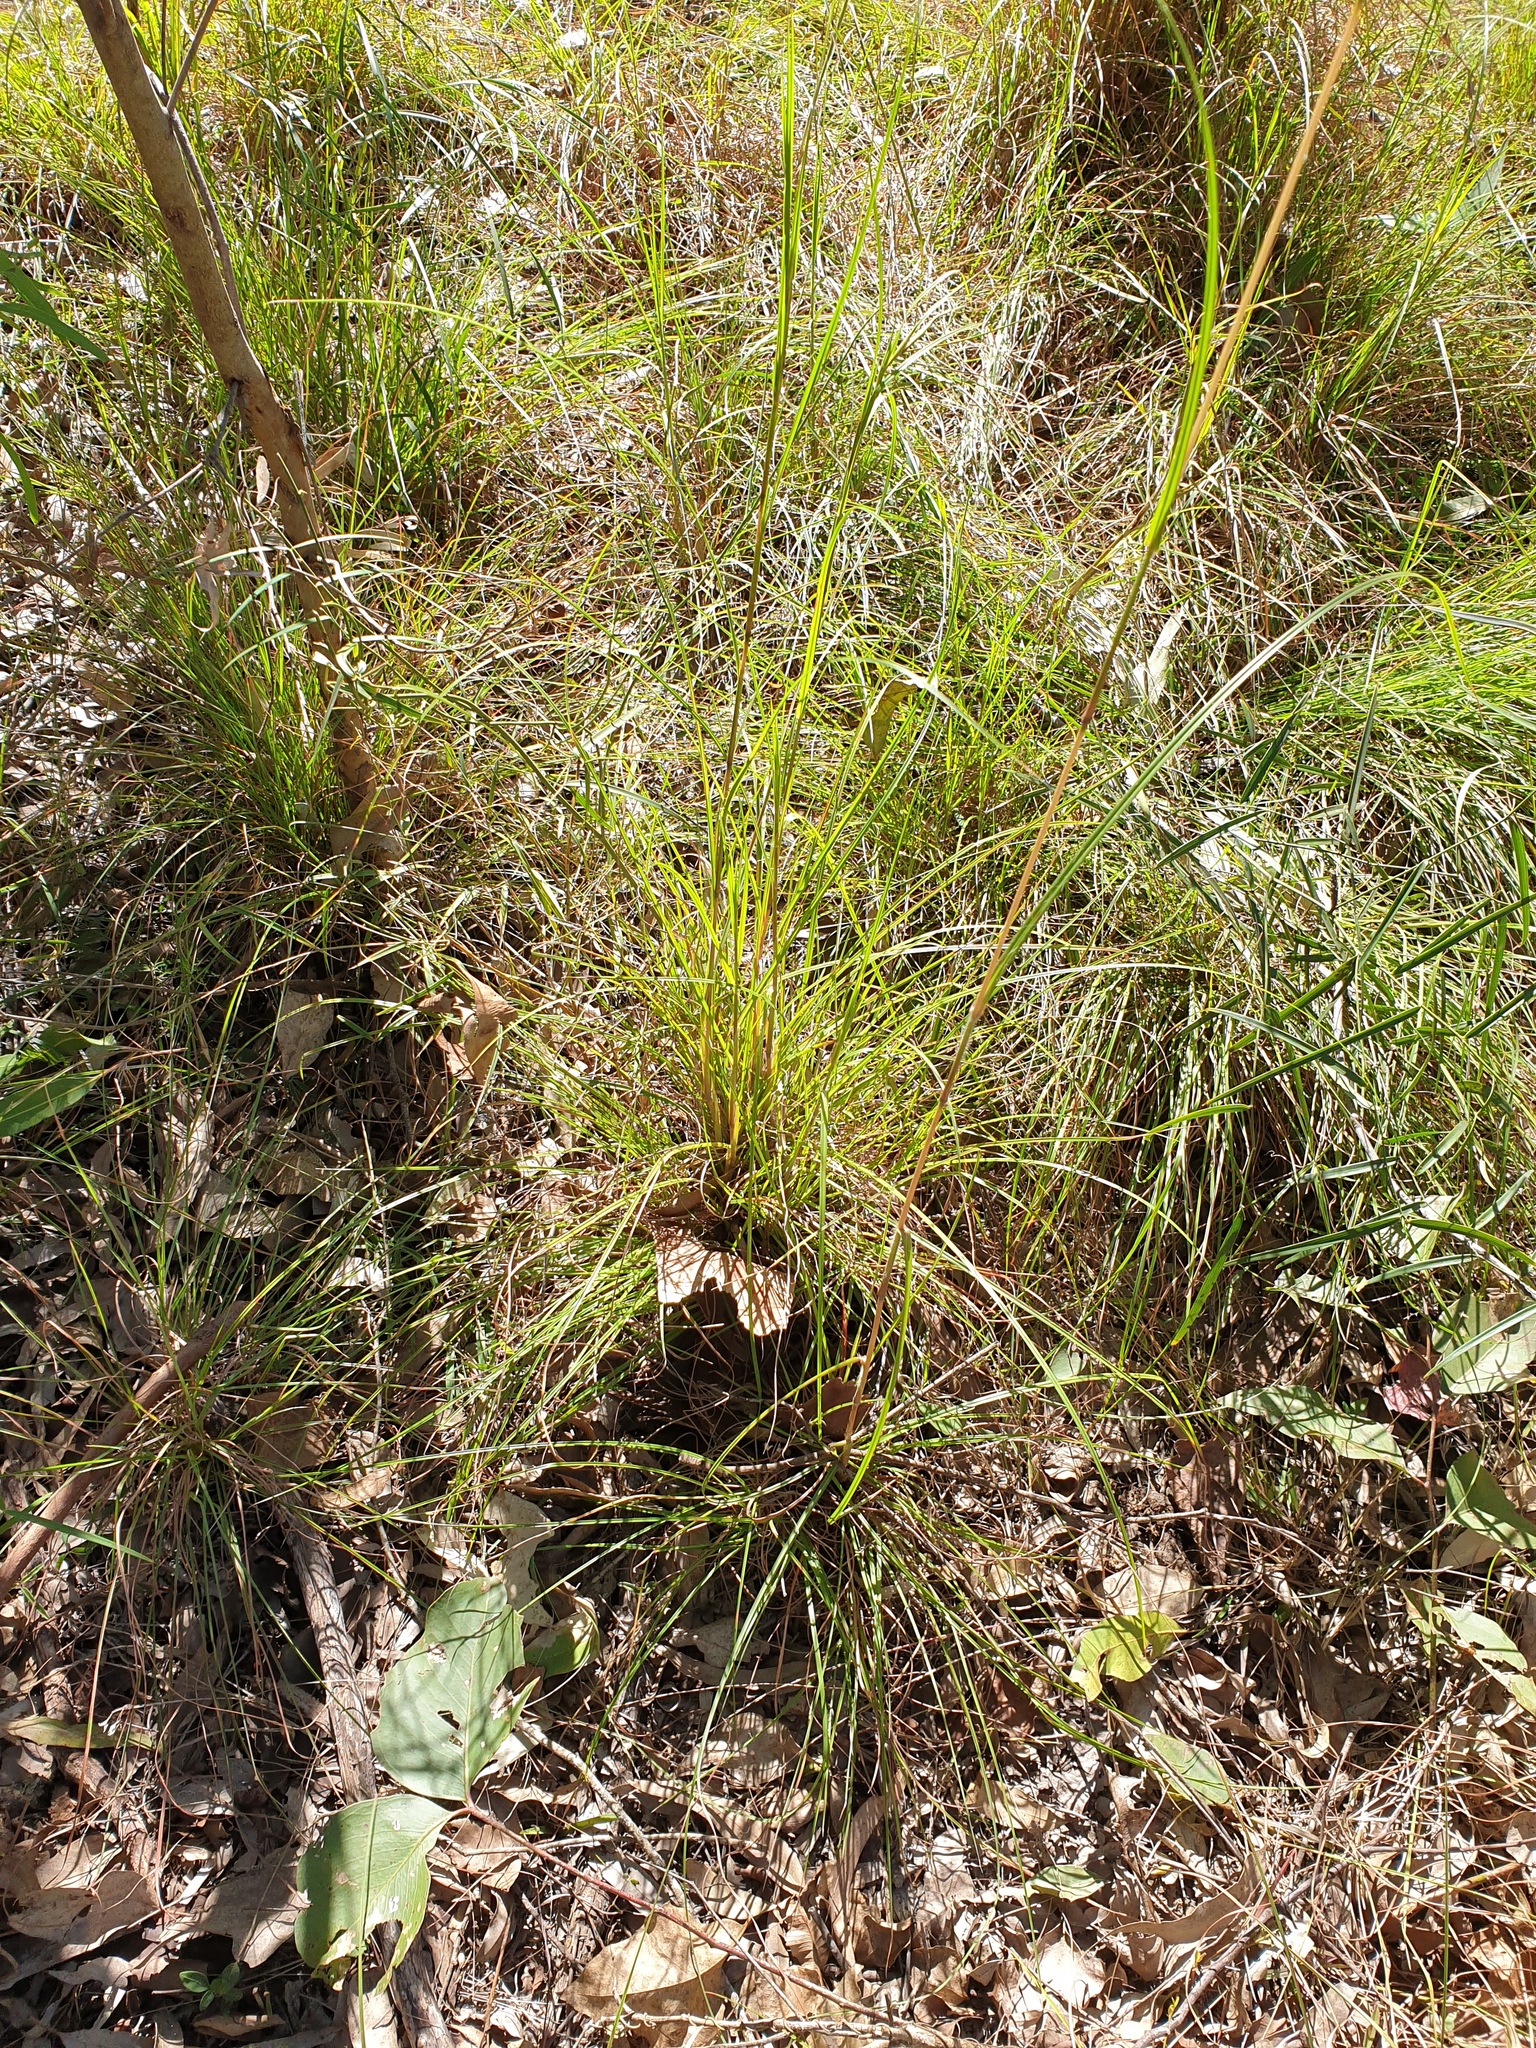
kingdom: Plantae
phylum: Tracheophyta
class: Liliopsida
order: Poales
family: Poaceae
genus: Themeda
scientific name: Themeda triandra
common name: Kangaroo grass
